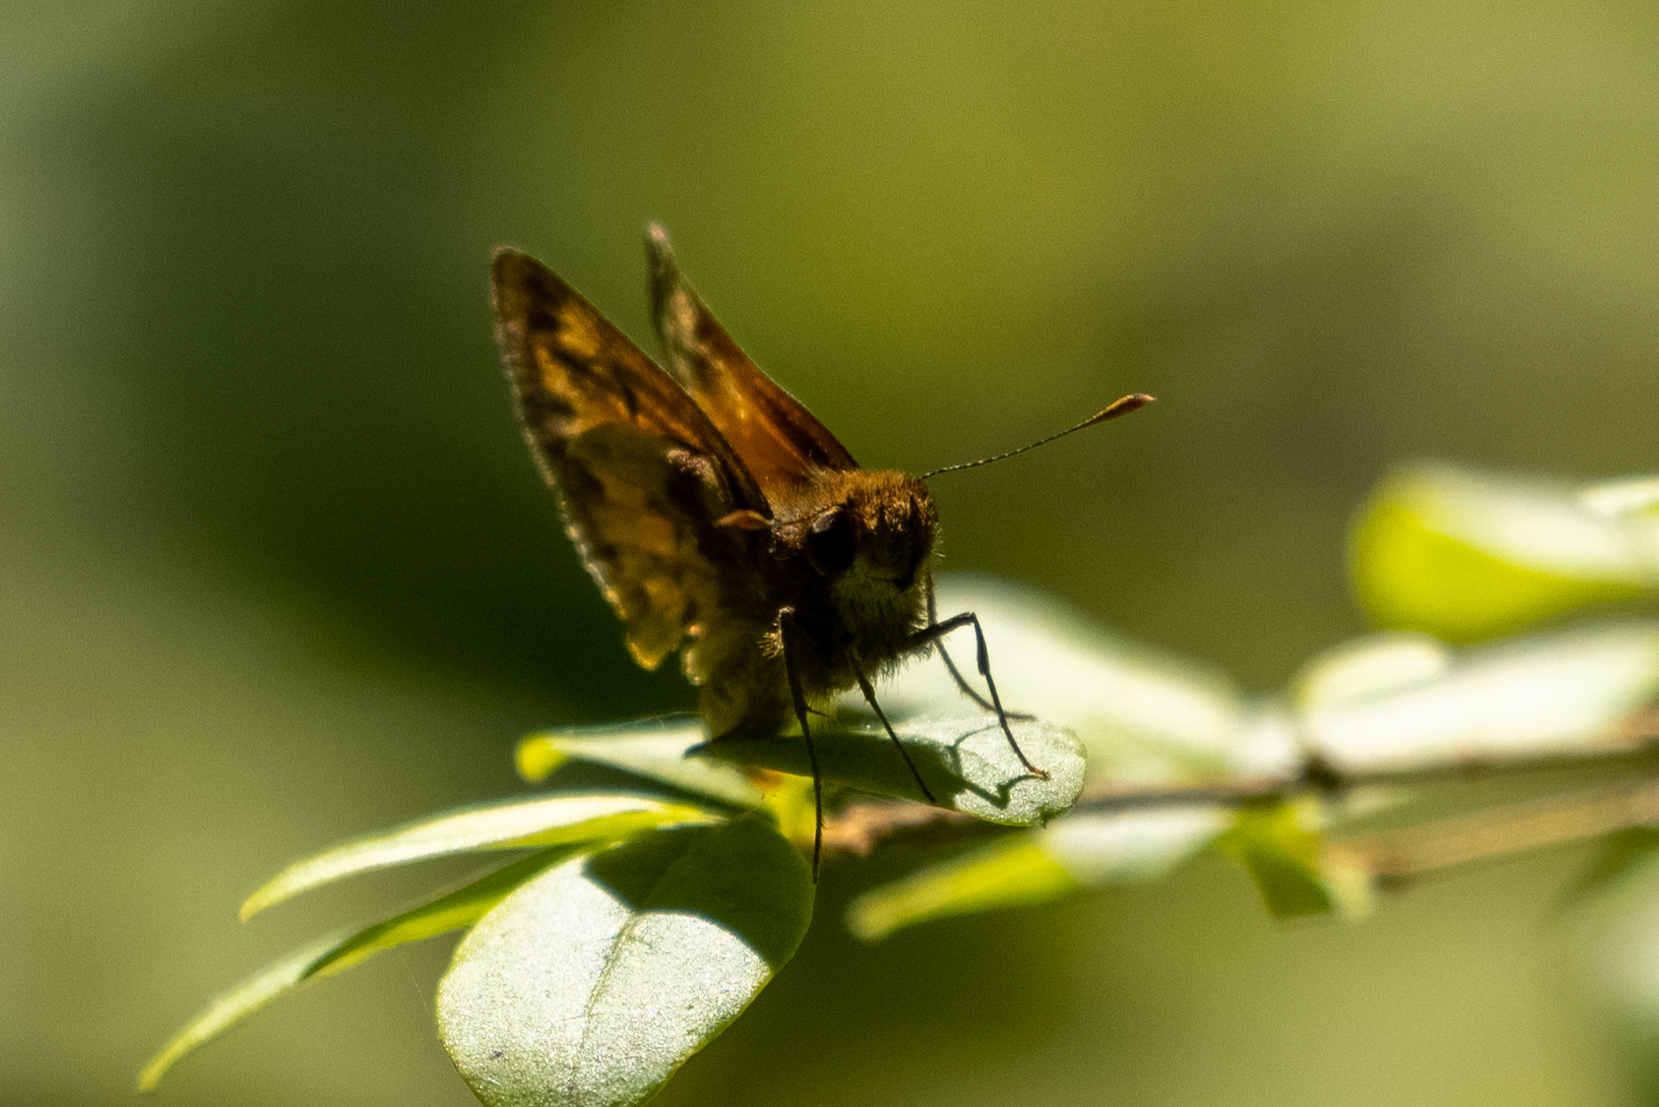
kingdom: Animalia
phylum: Arthropoda
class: Insecta
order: Lepidoptera
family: Hesperiidae
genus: Lon
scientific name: Lon zabulon
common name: Zabulon skipper
